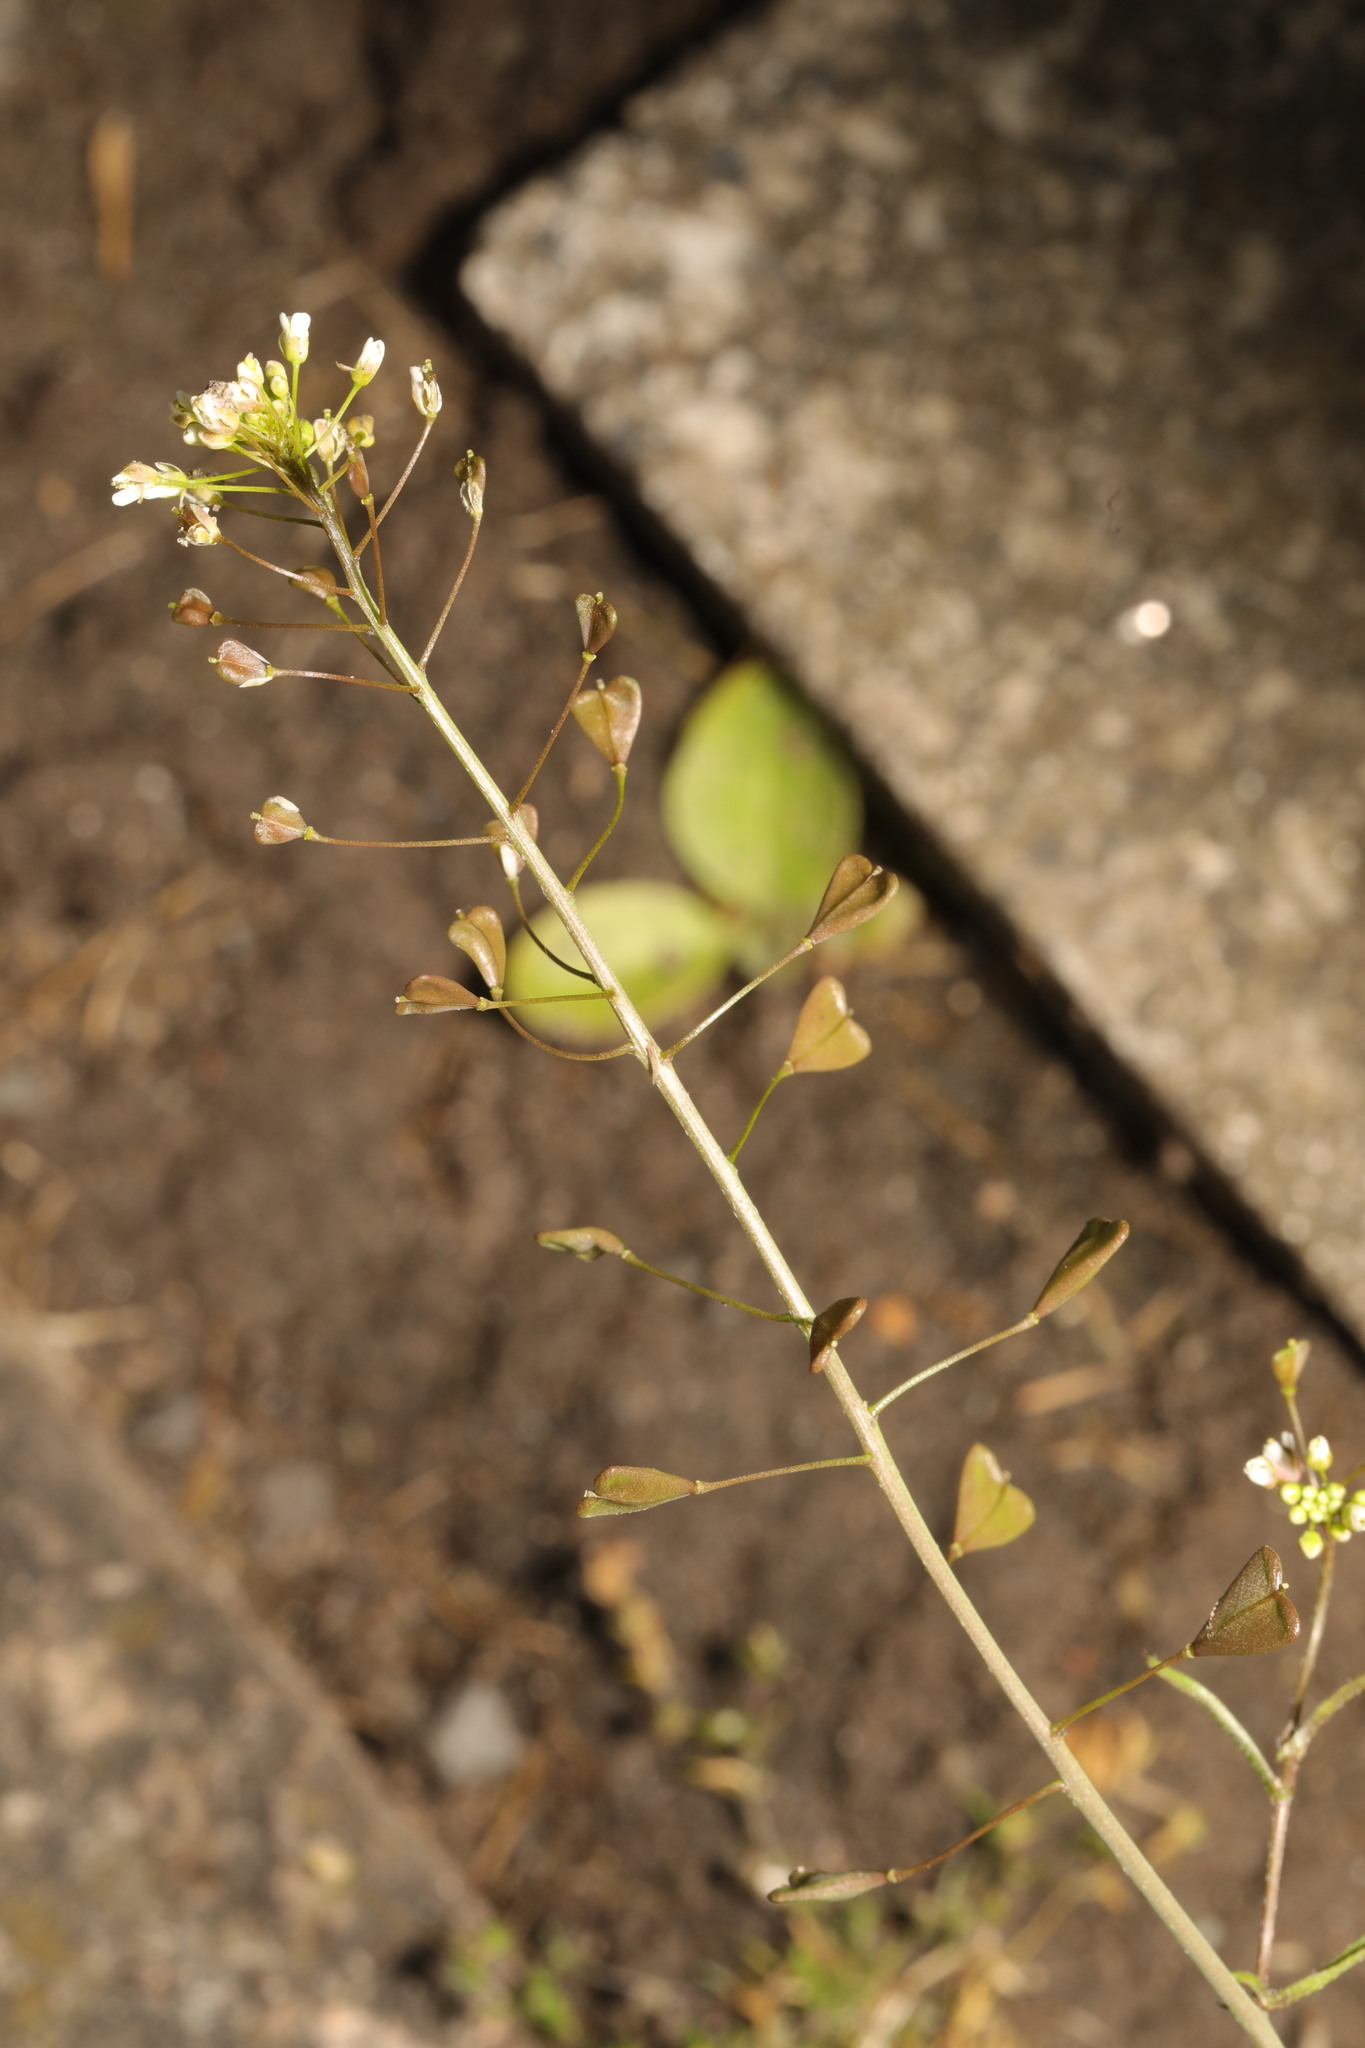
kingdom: Plantae
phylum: Tracheophyta
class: Magnoliopsida
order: Brassicales
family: Brassicaceae
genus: Capsella
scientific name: Capsella bursa-pastoris
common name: Shepherd's purse
